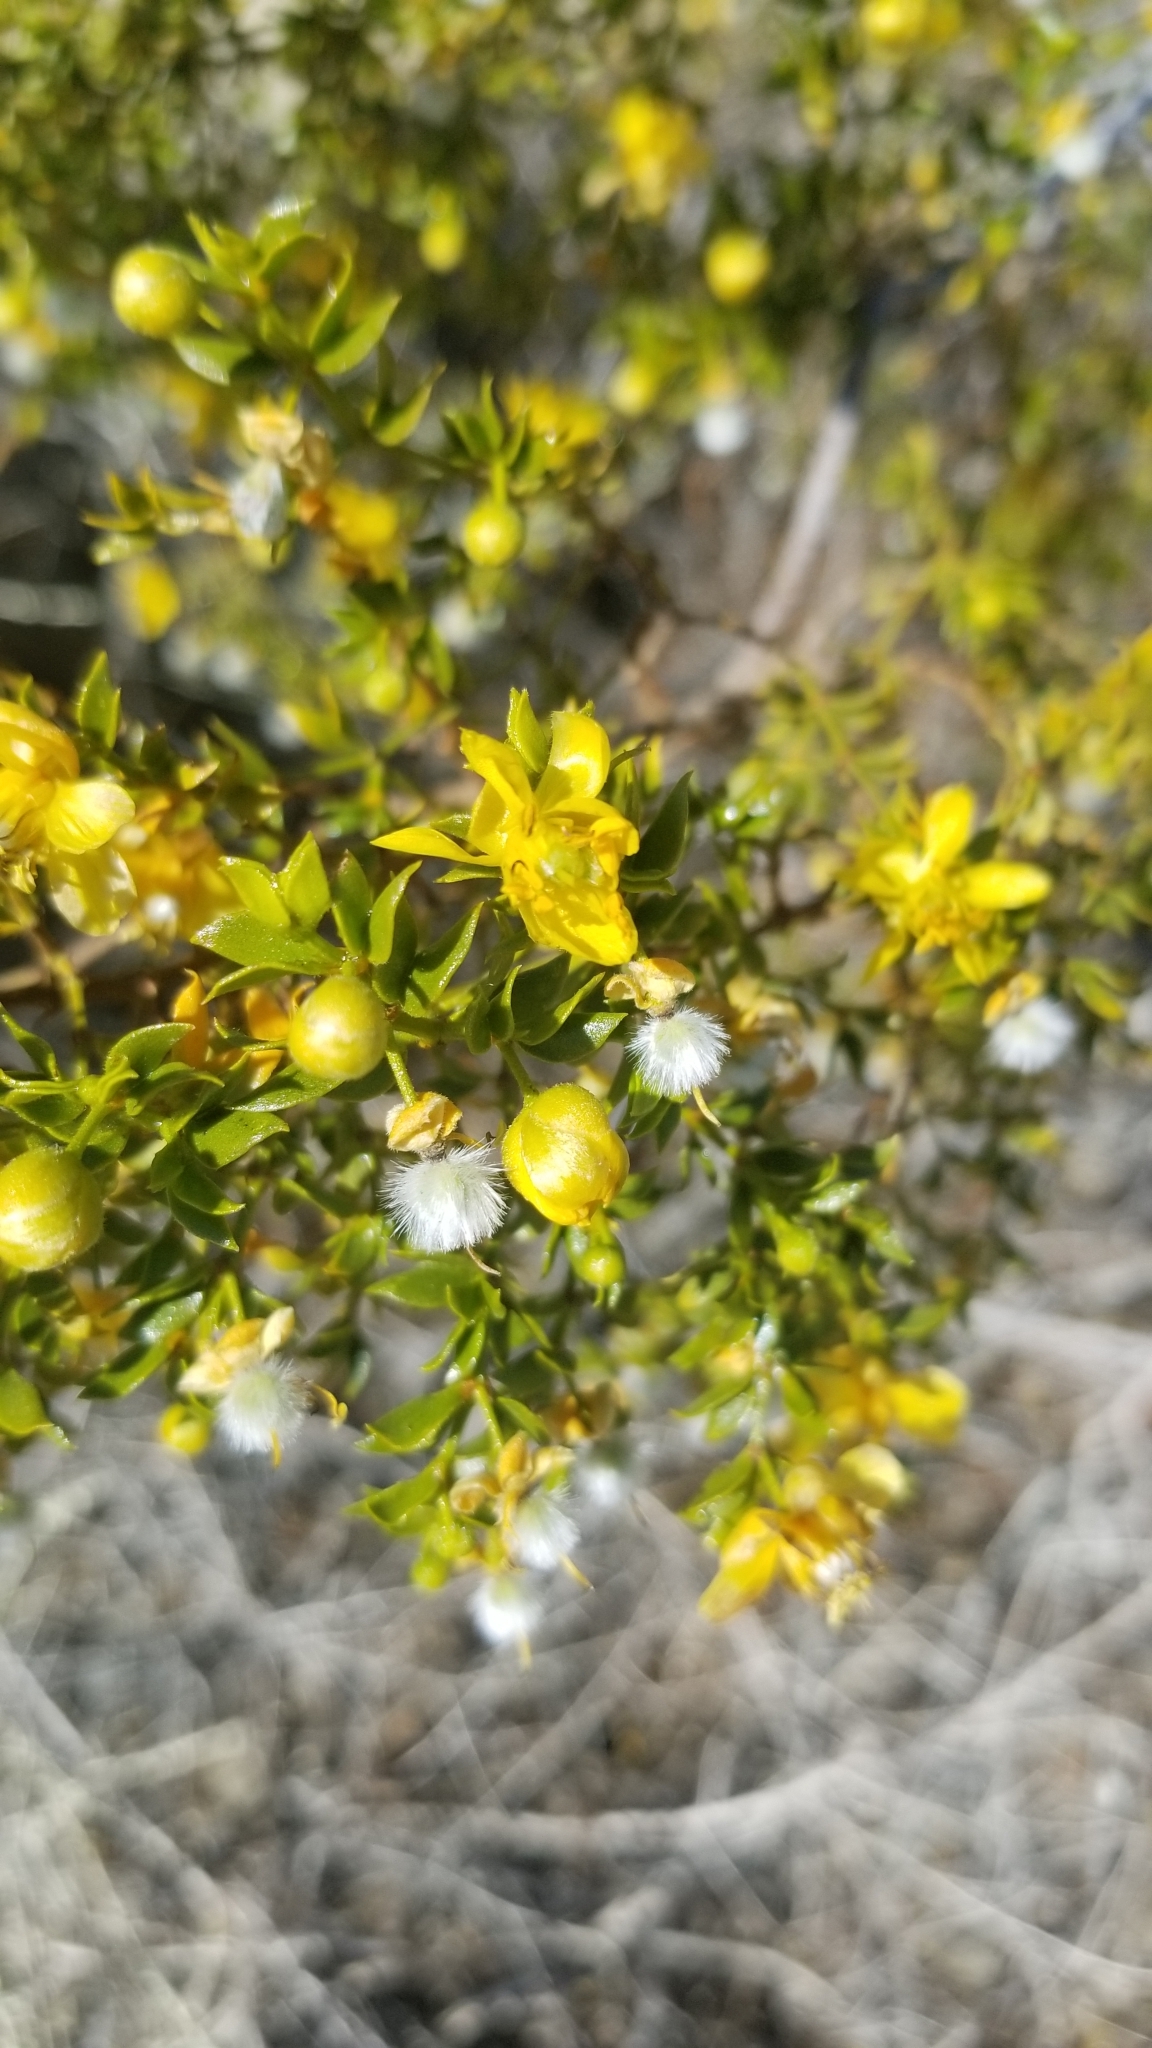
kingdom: Plantae
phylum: Tracheophyta
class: Magnoliopsida
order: Zygophyllales
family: Zygophyllaceae
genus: Larrea
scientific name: Larrea tridentata
